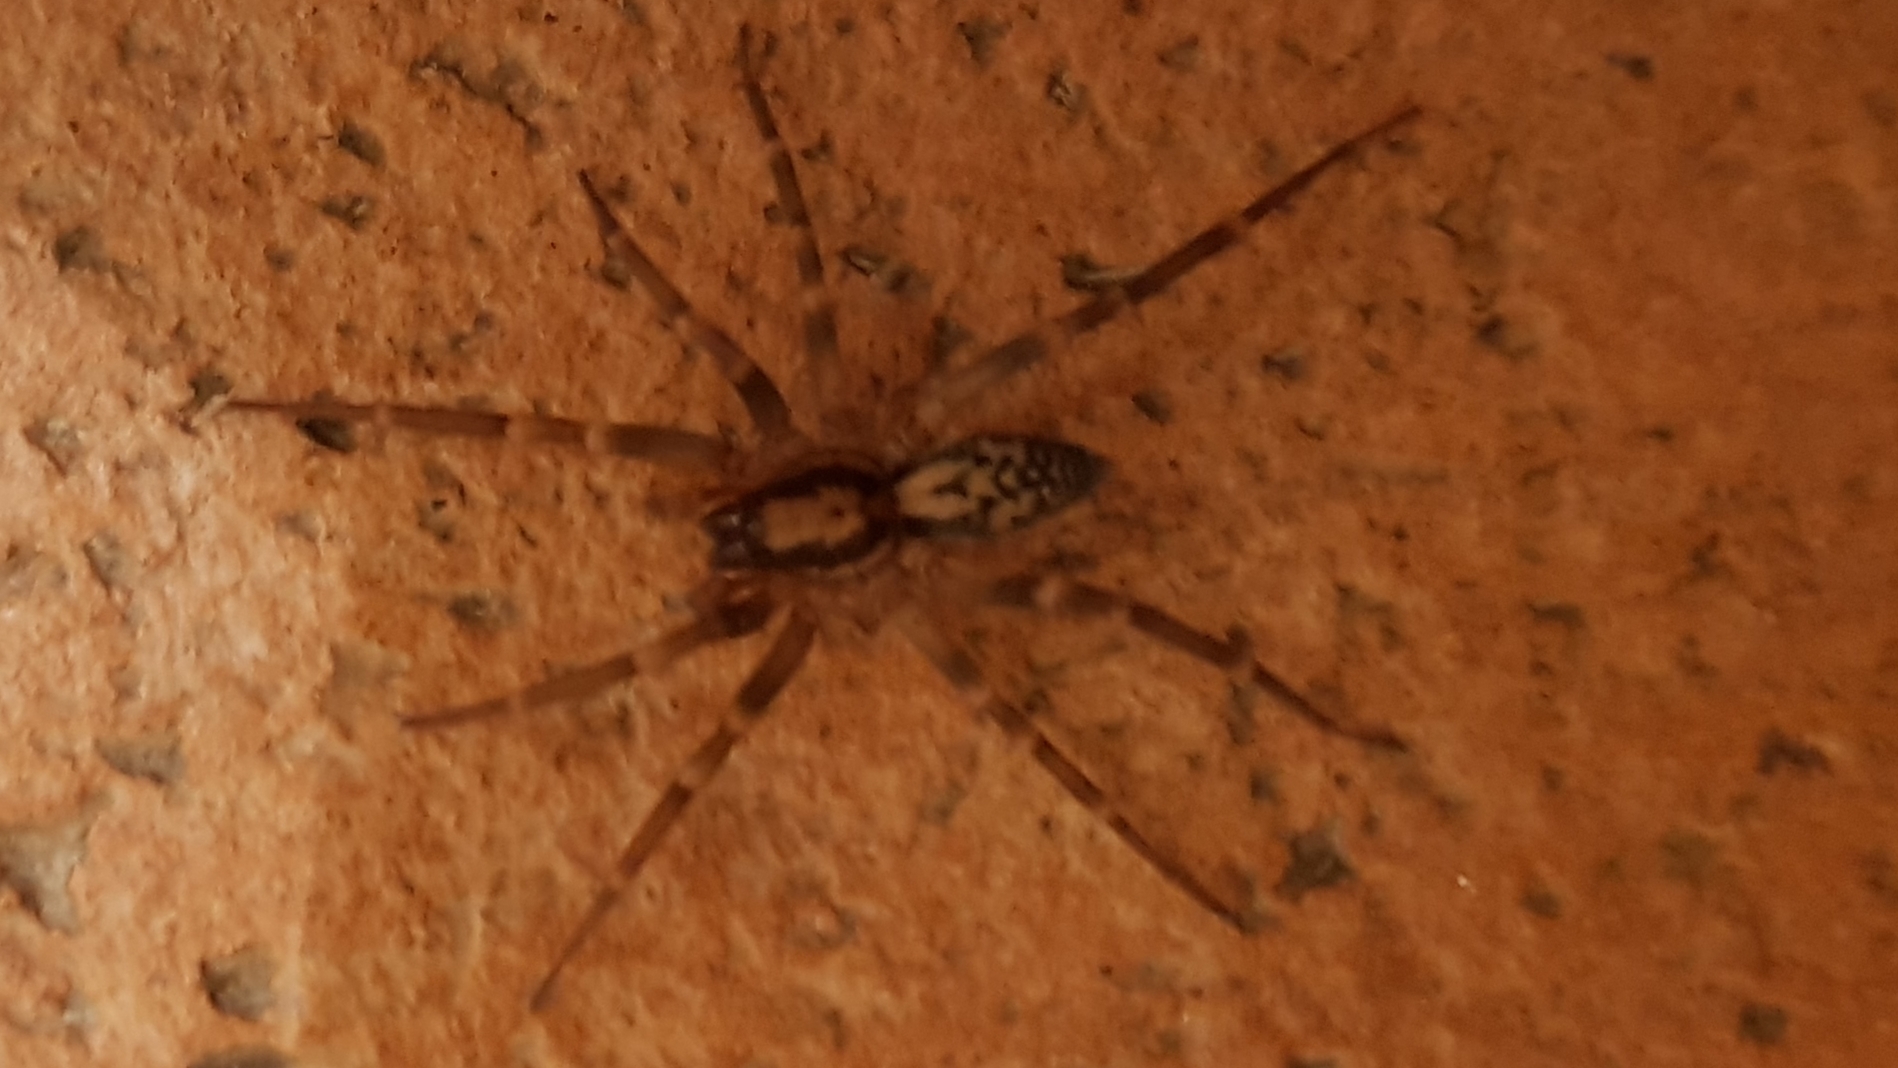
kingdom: Animalia
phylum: Arthropoda
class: Arachnida
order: Araneae
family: Liocranidae
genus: Liocranum
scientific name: Liocranum rupicola
